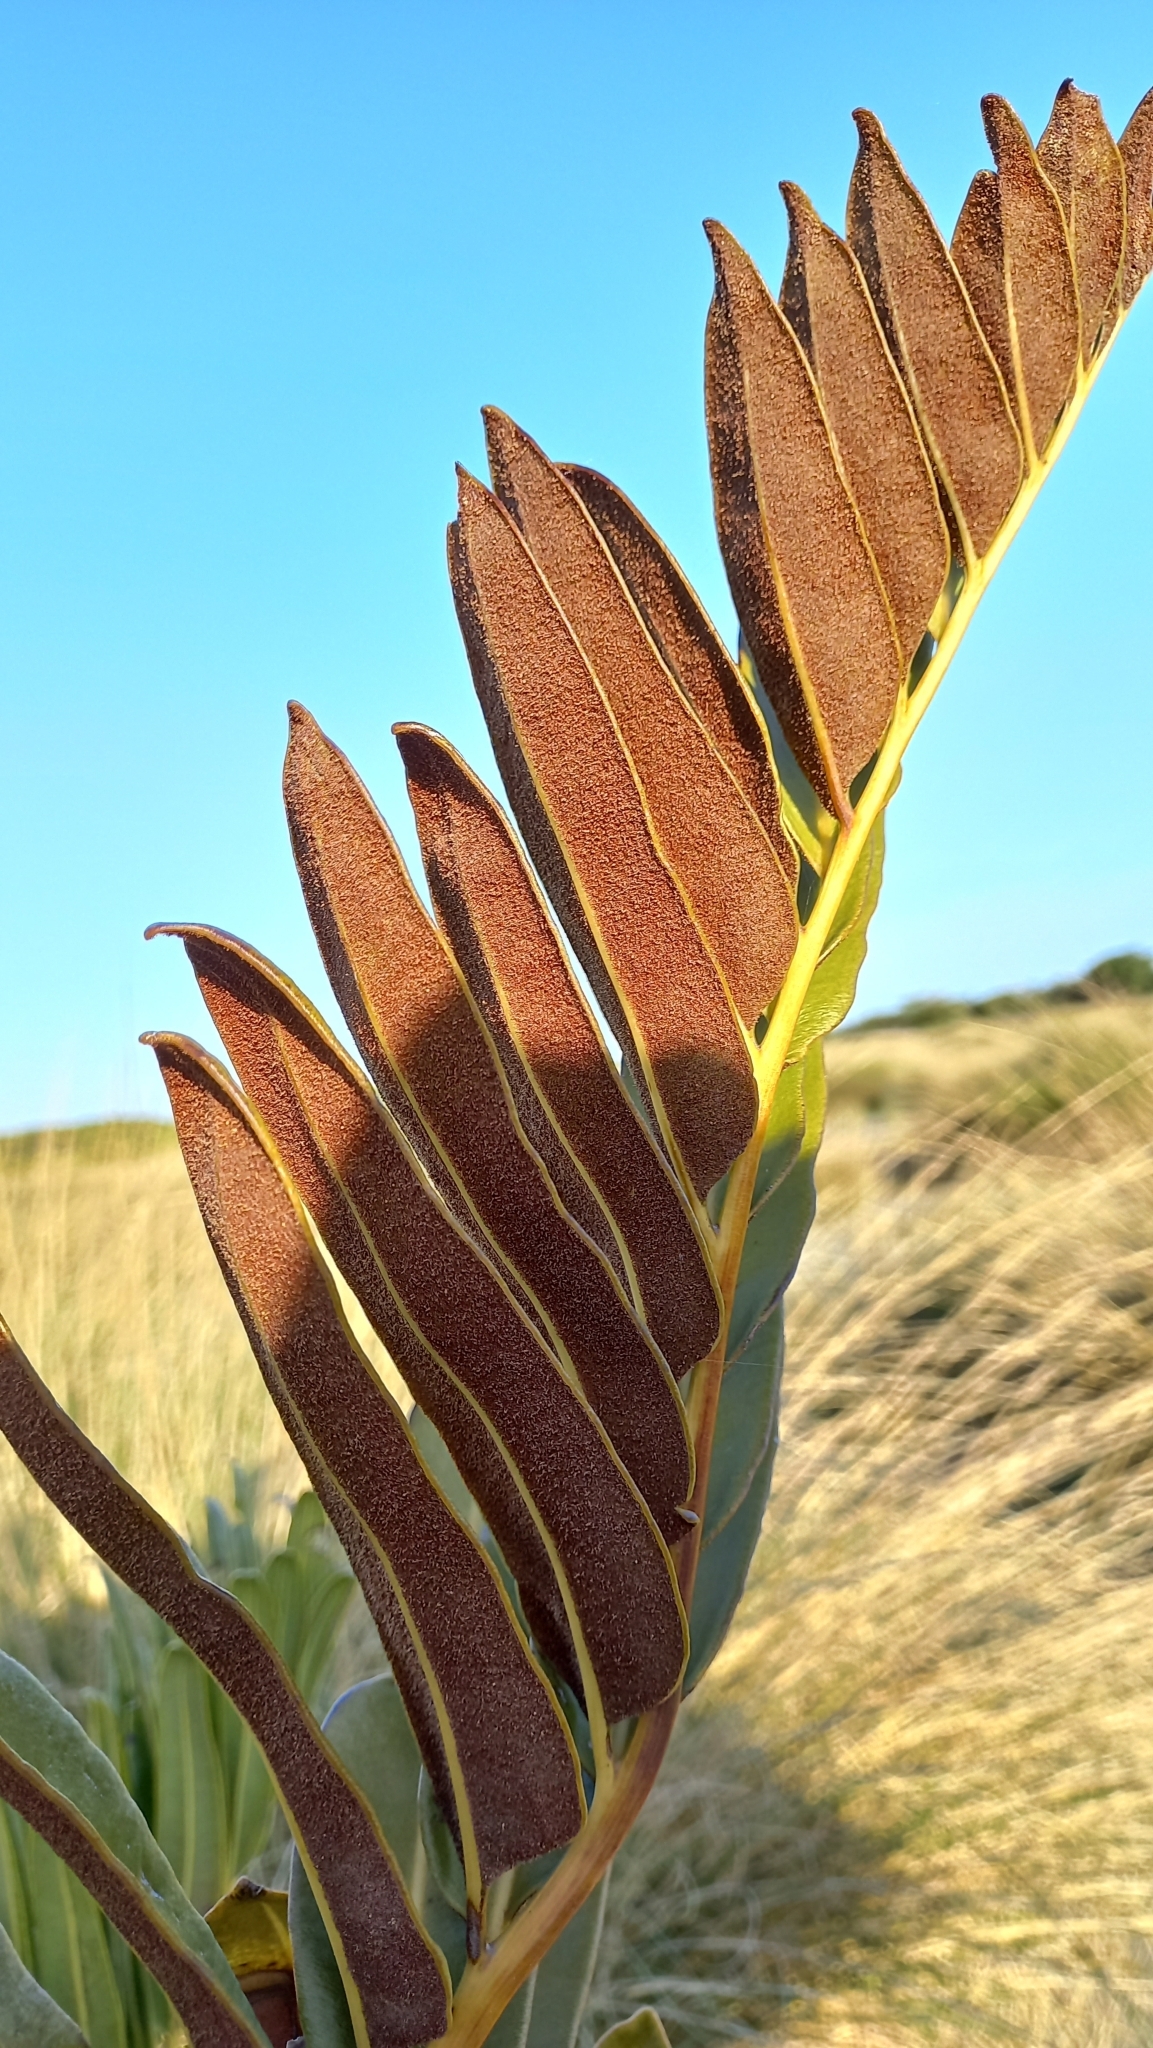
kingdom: Plantae
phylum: Tracheophyta
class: Polypodiopsida
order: Polypodiales
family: Pteridaceae
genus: Acrostichum
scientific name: Acrostichum danaeifolium
